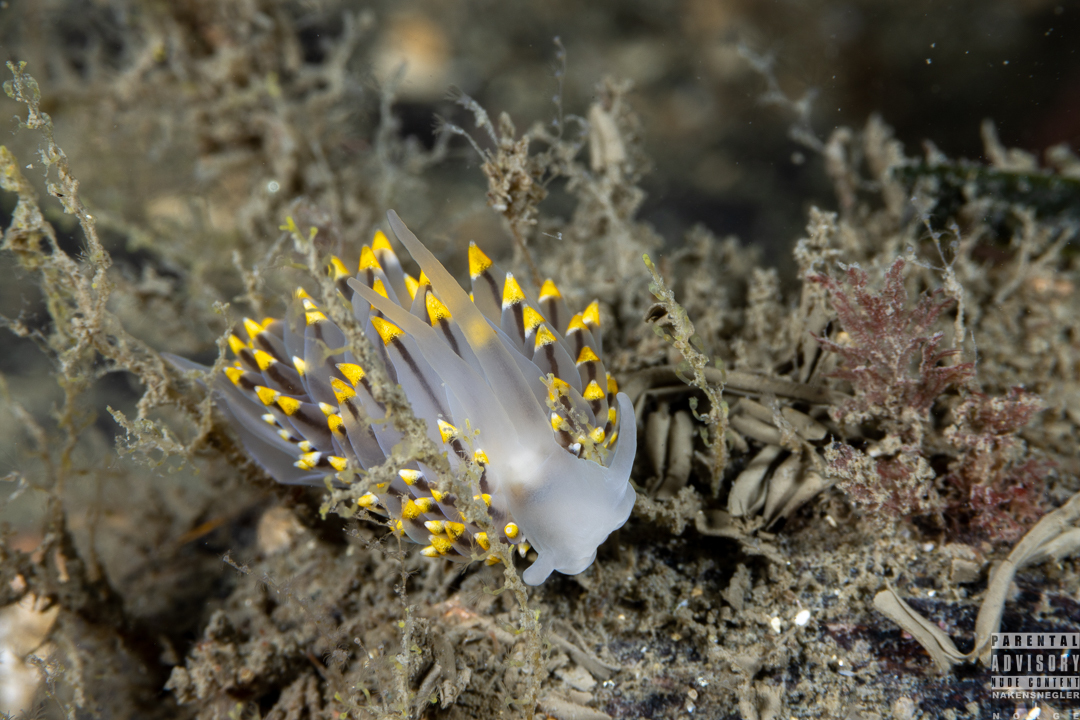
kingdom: Animalia
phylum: Mollusca
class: Gastropoda
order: Nudibranchia
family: Eubranchidae
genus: Eubranchus
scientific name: Eubranchus tricolor
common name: Painted balloon aeolis
